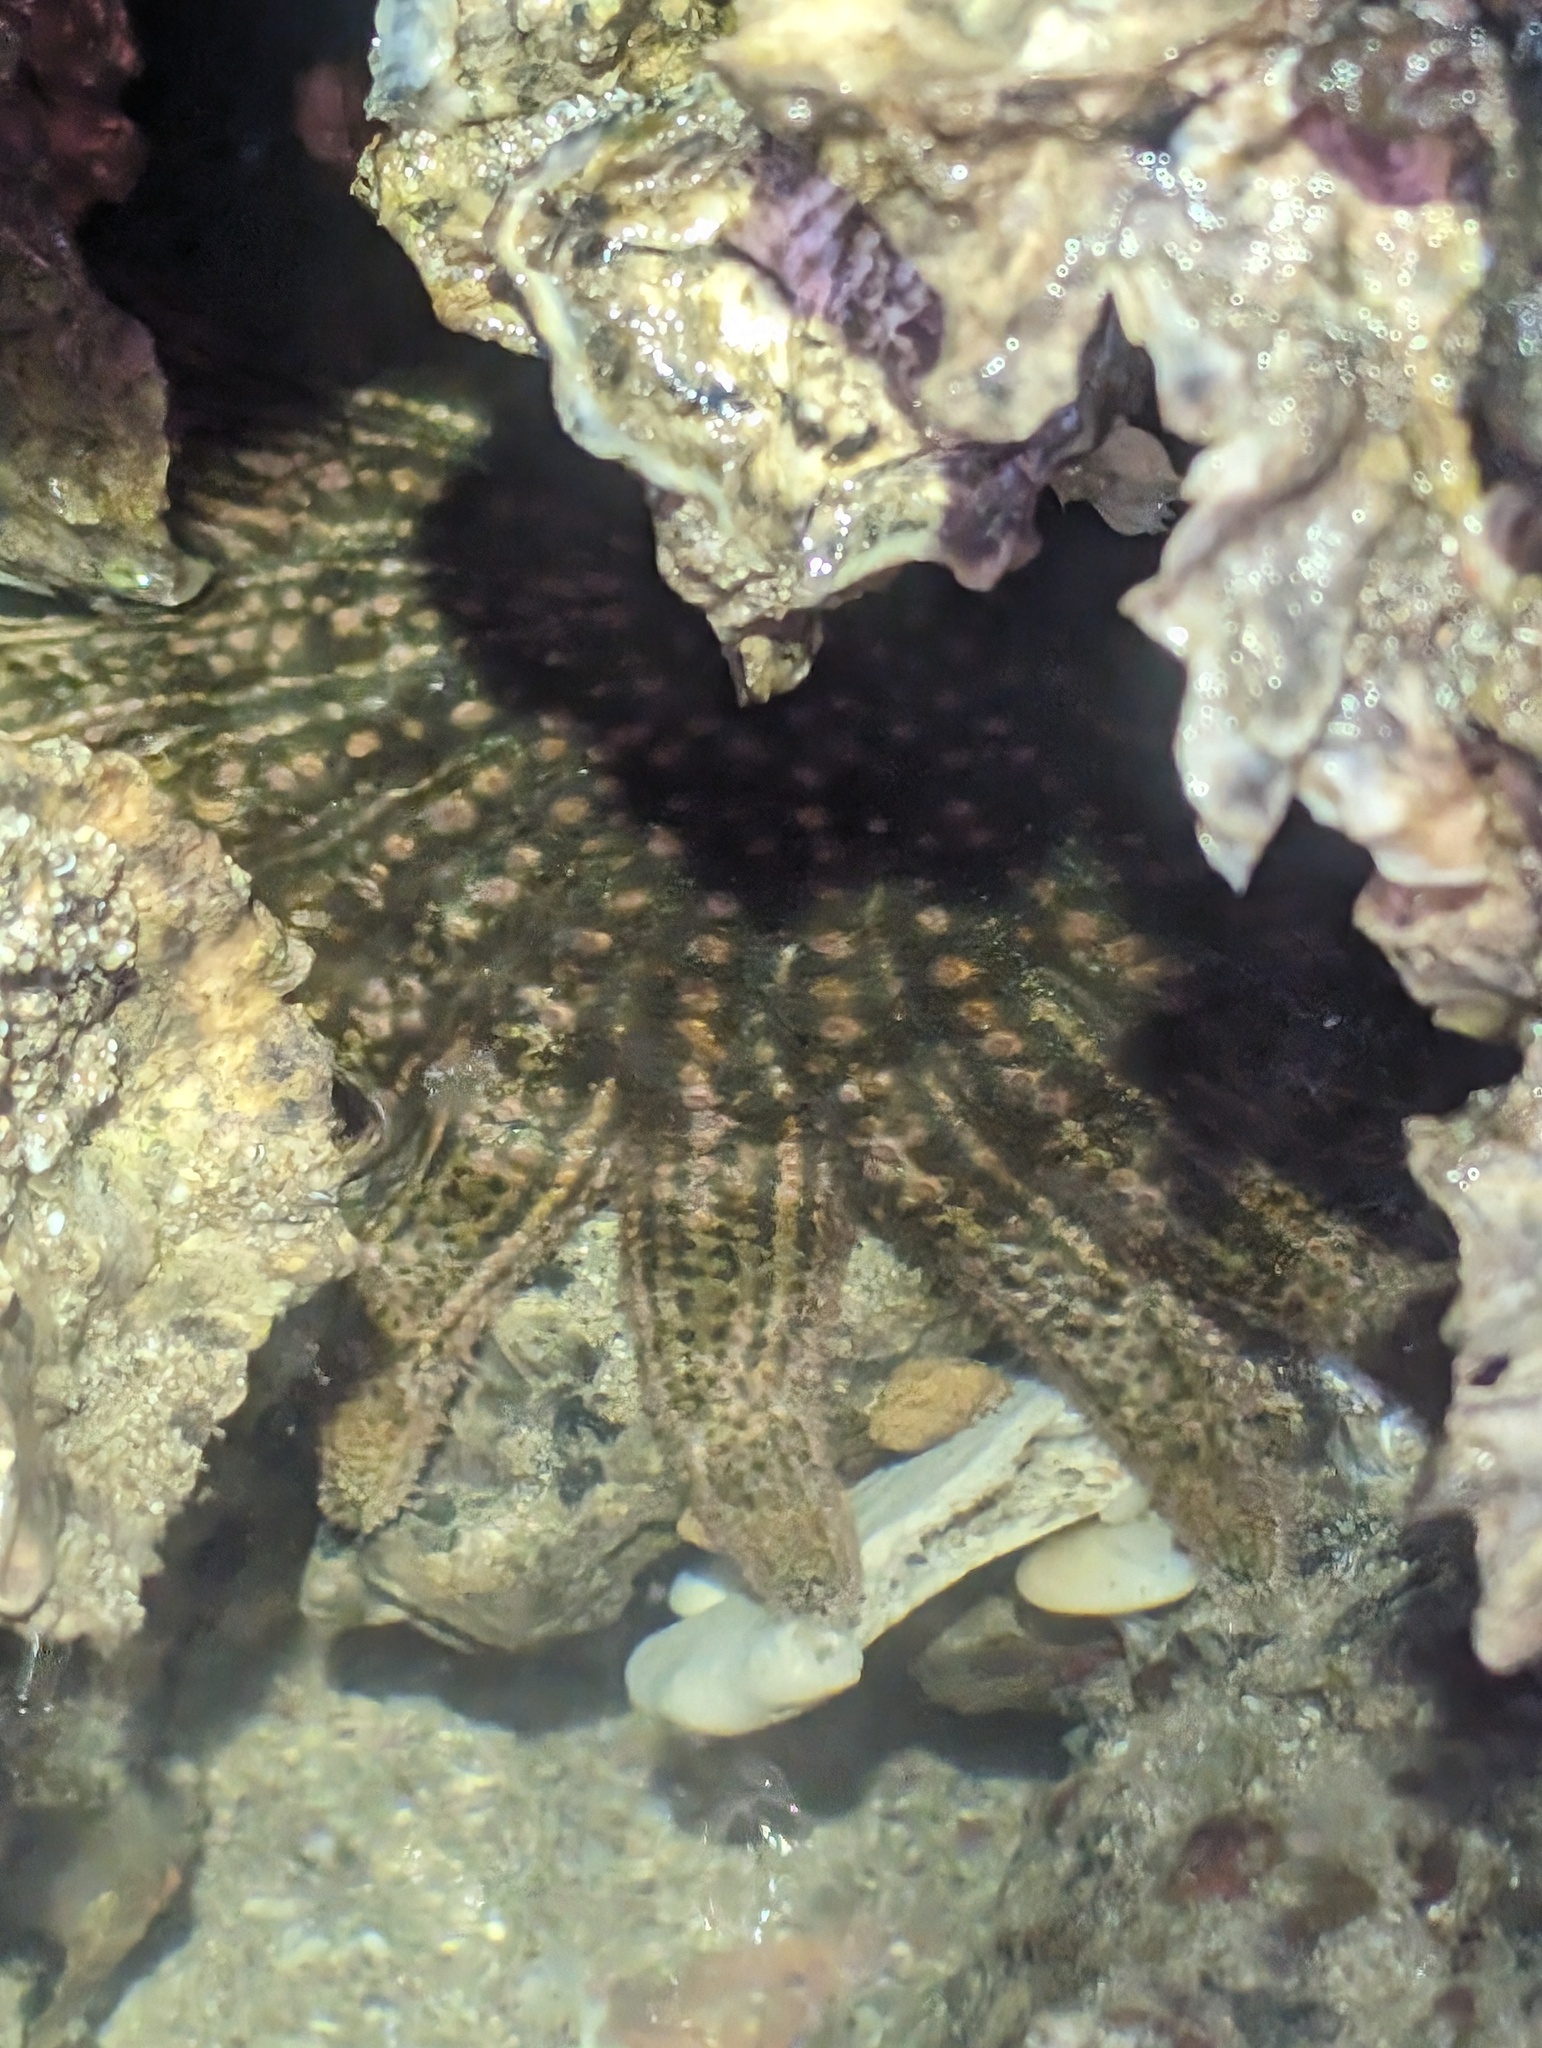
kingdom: Animalia
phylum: Echinodermata
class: Asteroidea
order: Forcipulatida
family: Heliasteridae
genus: Heliaster
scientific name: Heliaster kubiniji
